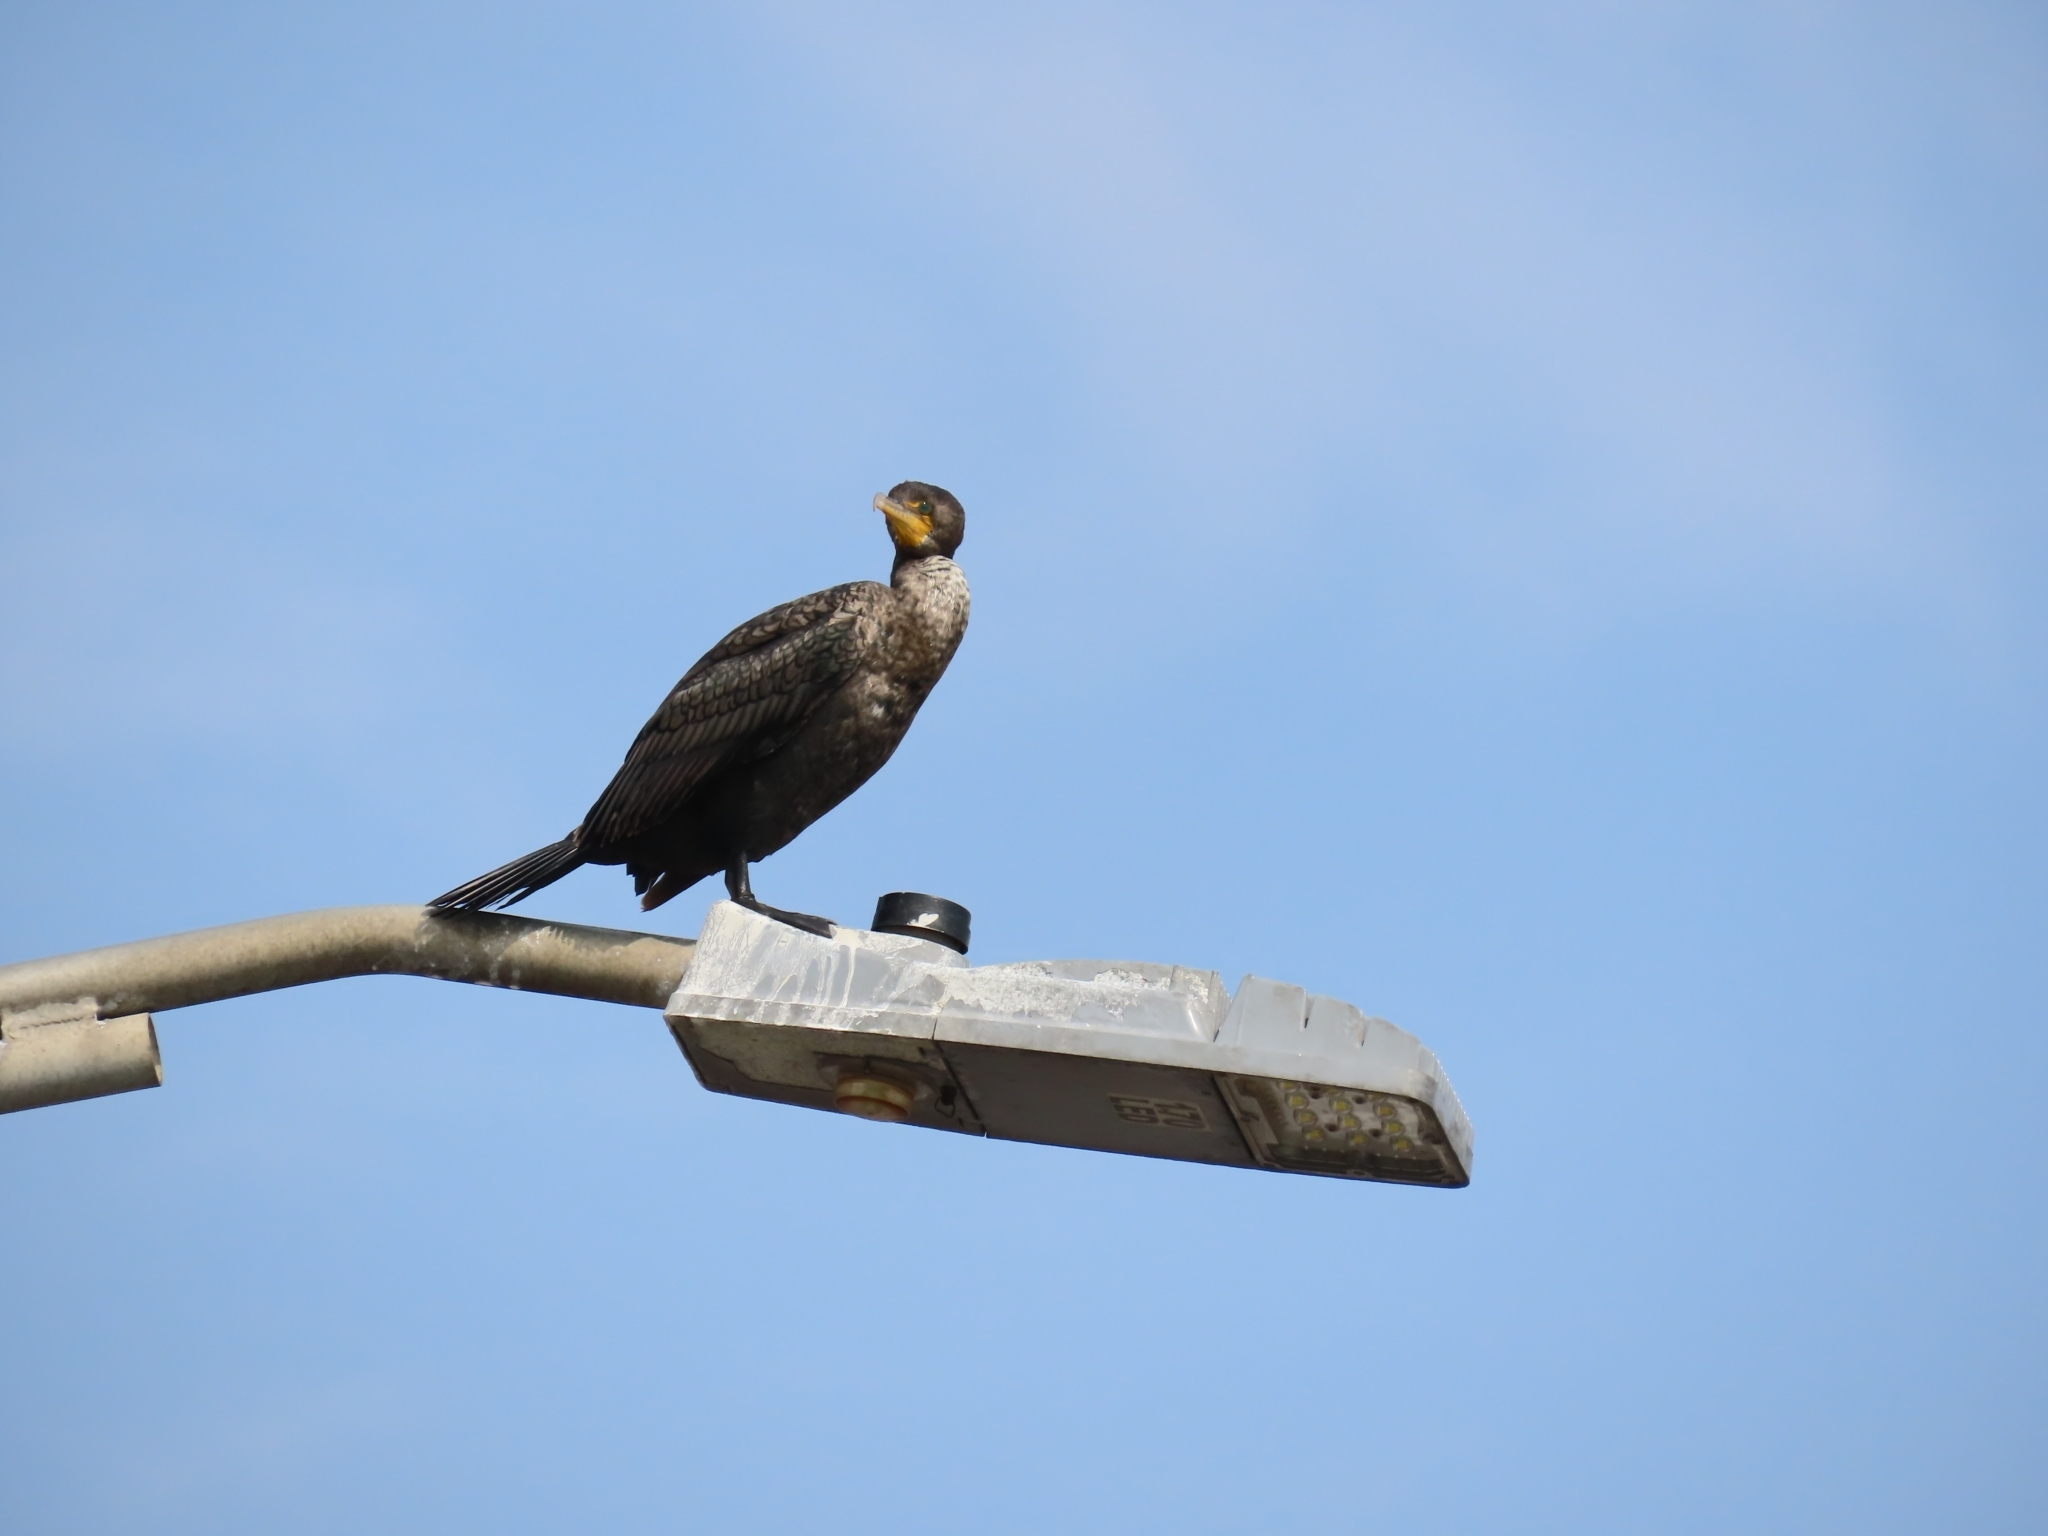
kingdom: Animalia
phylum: Chordata
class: Aves
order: Suliformes
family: Phalacrocoracidae
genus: Phalacrocorax
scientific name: Phalacrocorax auritus
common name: Double-crested cormorant
